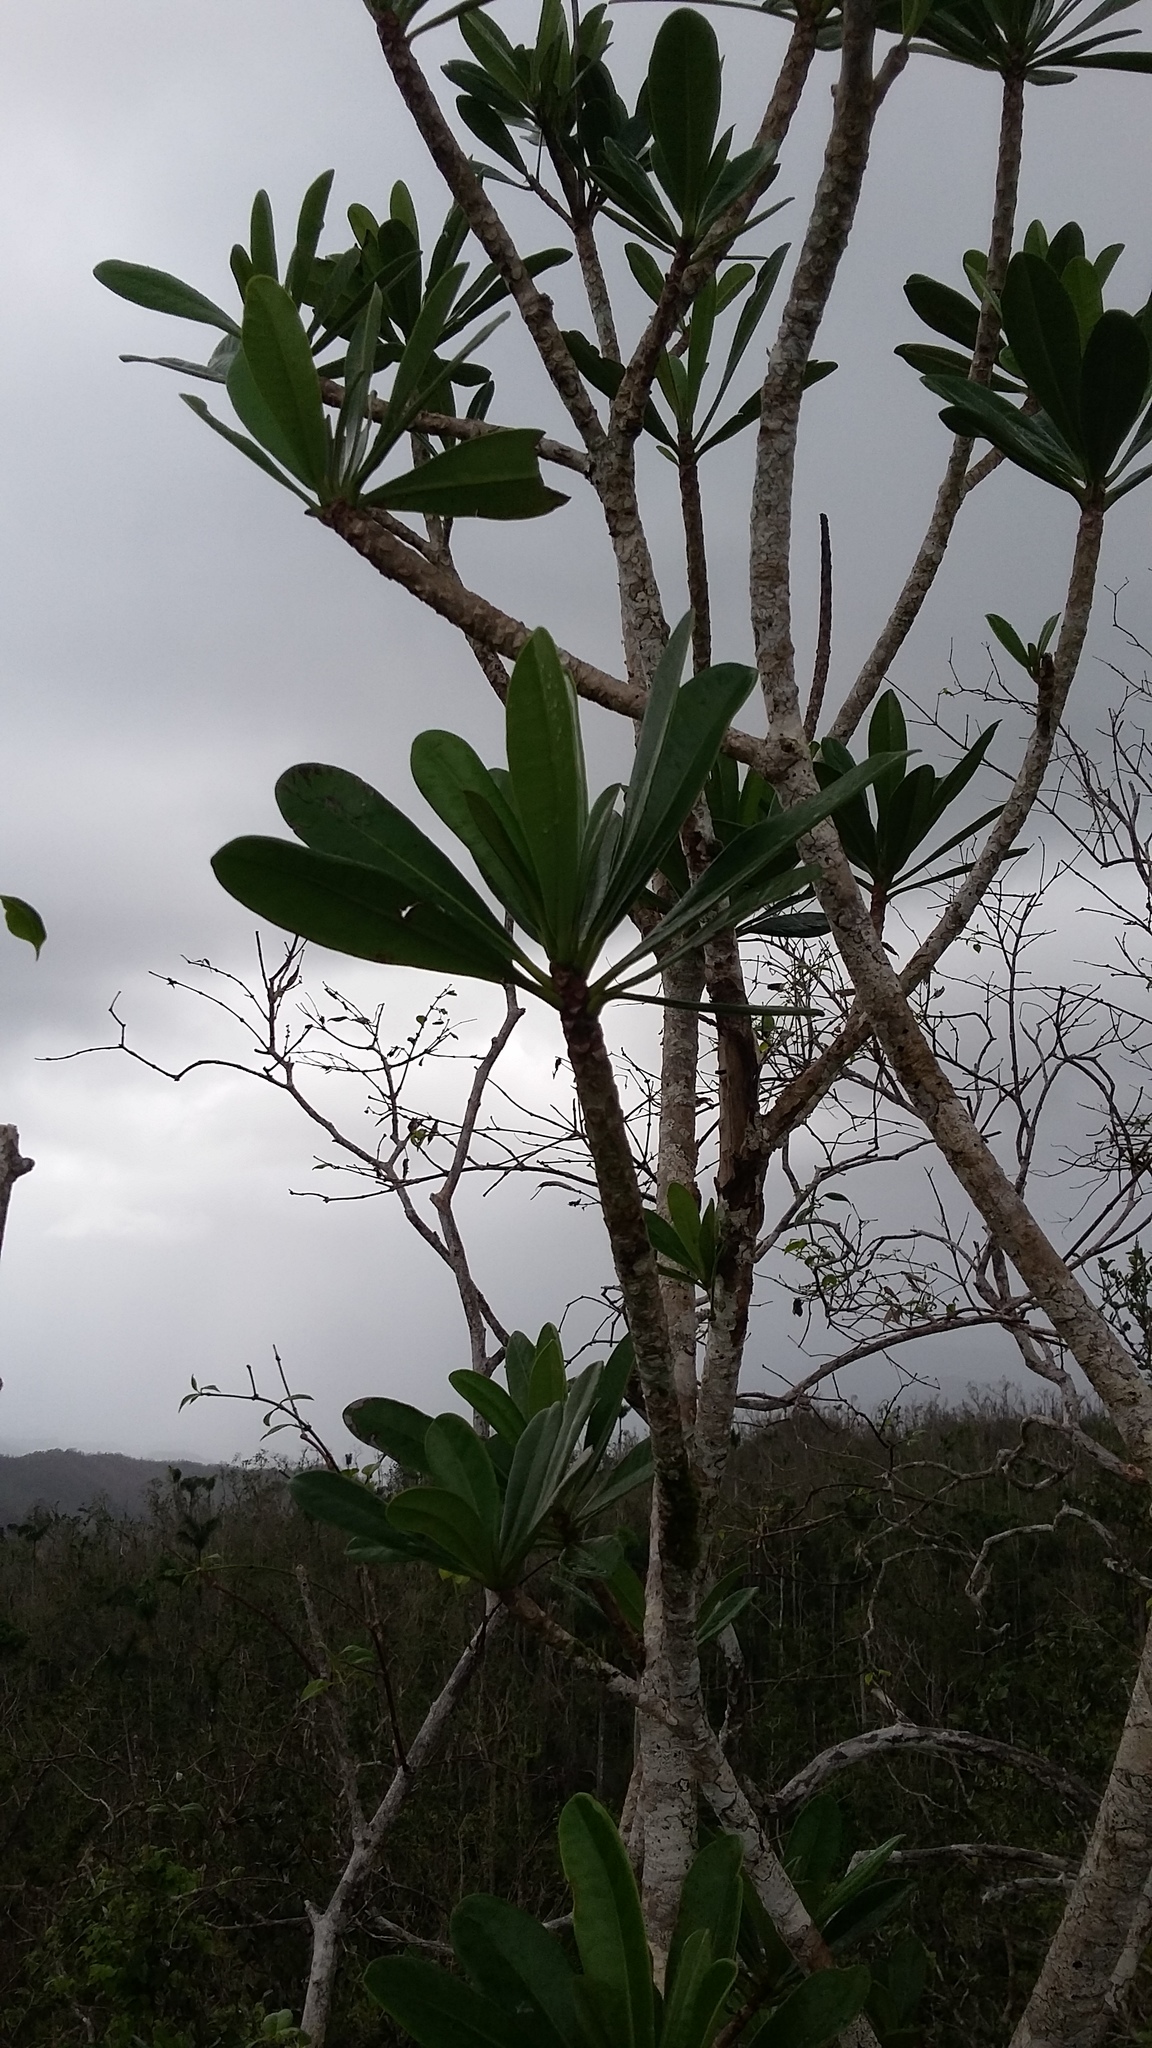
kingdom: Plantae
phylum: Tracheophyta
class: Magnoliopsida
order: Gentianales
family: Apocynaceae
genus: Plumeria
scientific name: Plumeria obtusa
